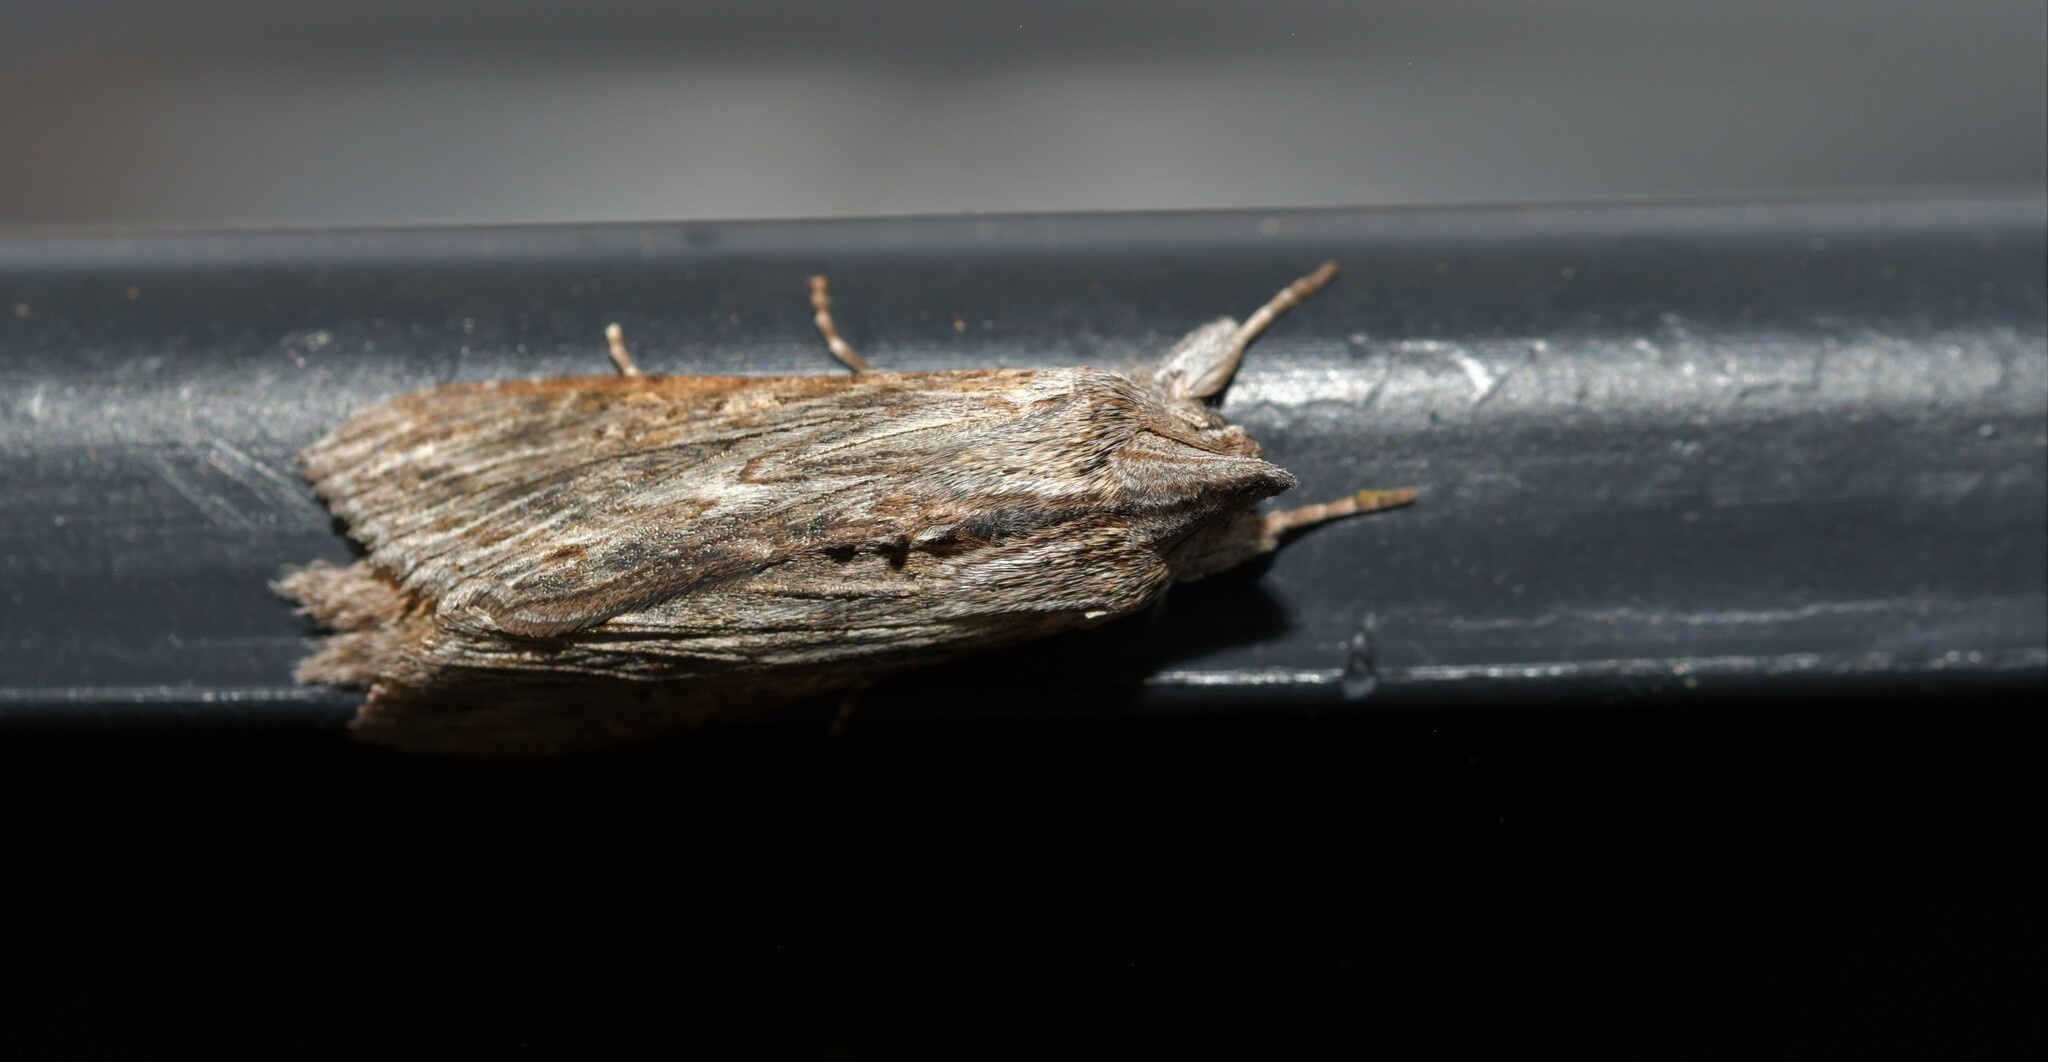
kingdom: Animalia
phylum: Arthropoda
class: Insecta
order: Lepidoptera
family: Noctuidae
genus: Cucullia
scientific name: Cucullia calendulae
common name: Marigold shark
